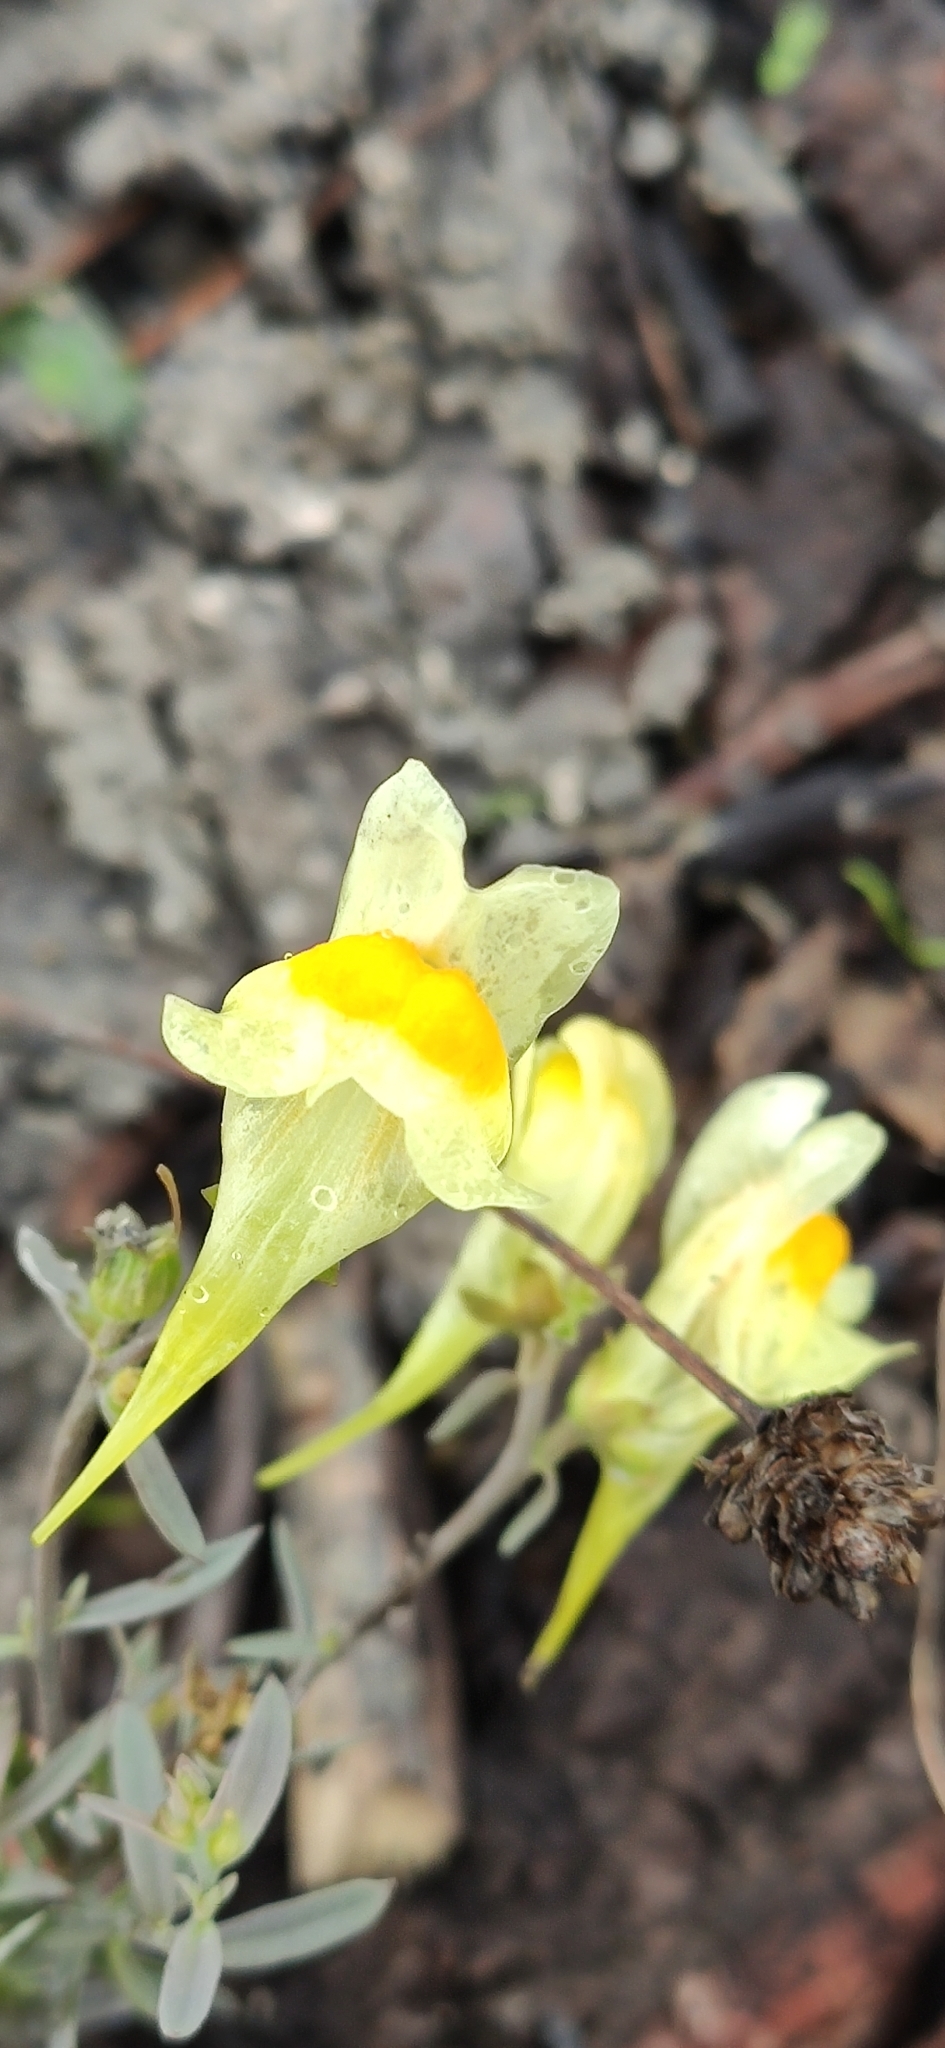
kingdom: Plantae
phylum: Tracheophyta
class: Magnoliopsida
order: Lamiales
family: Plantaginaceae
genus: Linaria
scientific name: Linaria vulgaris
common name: Butter and eggs
